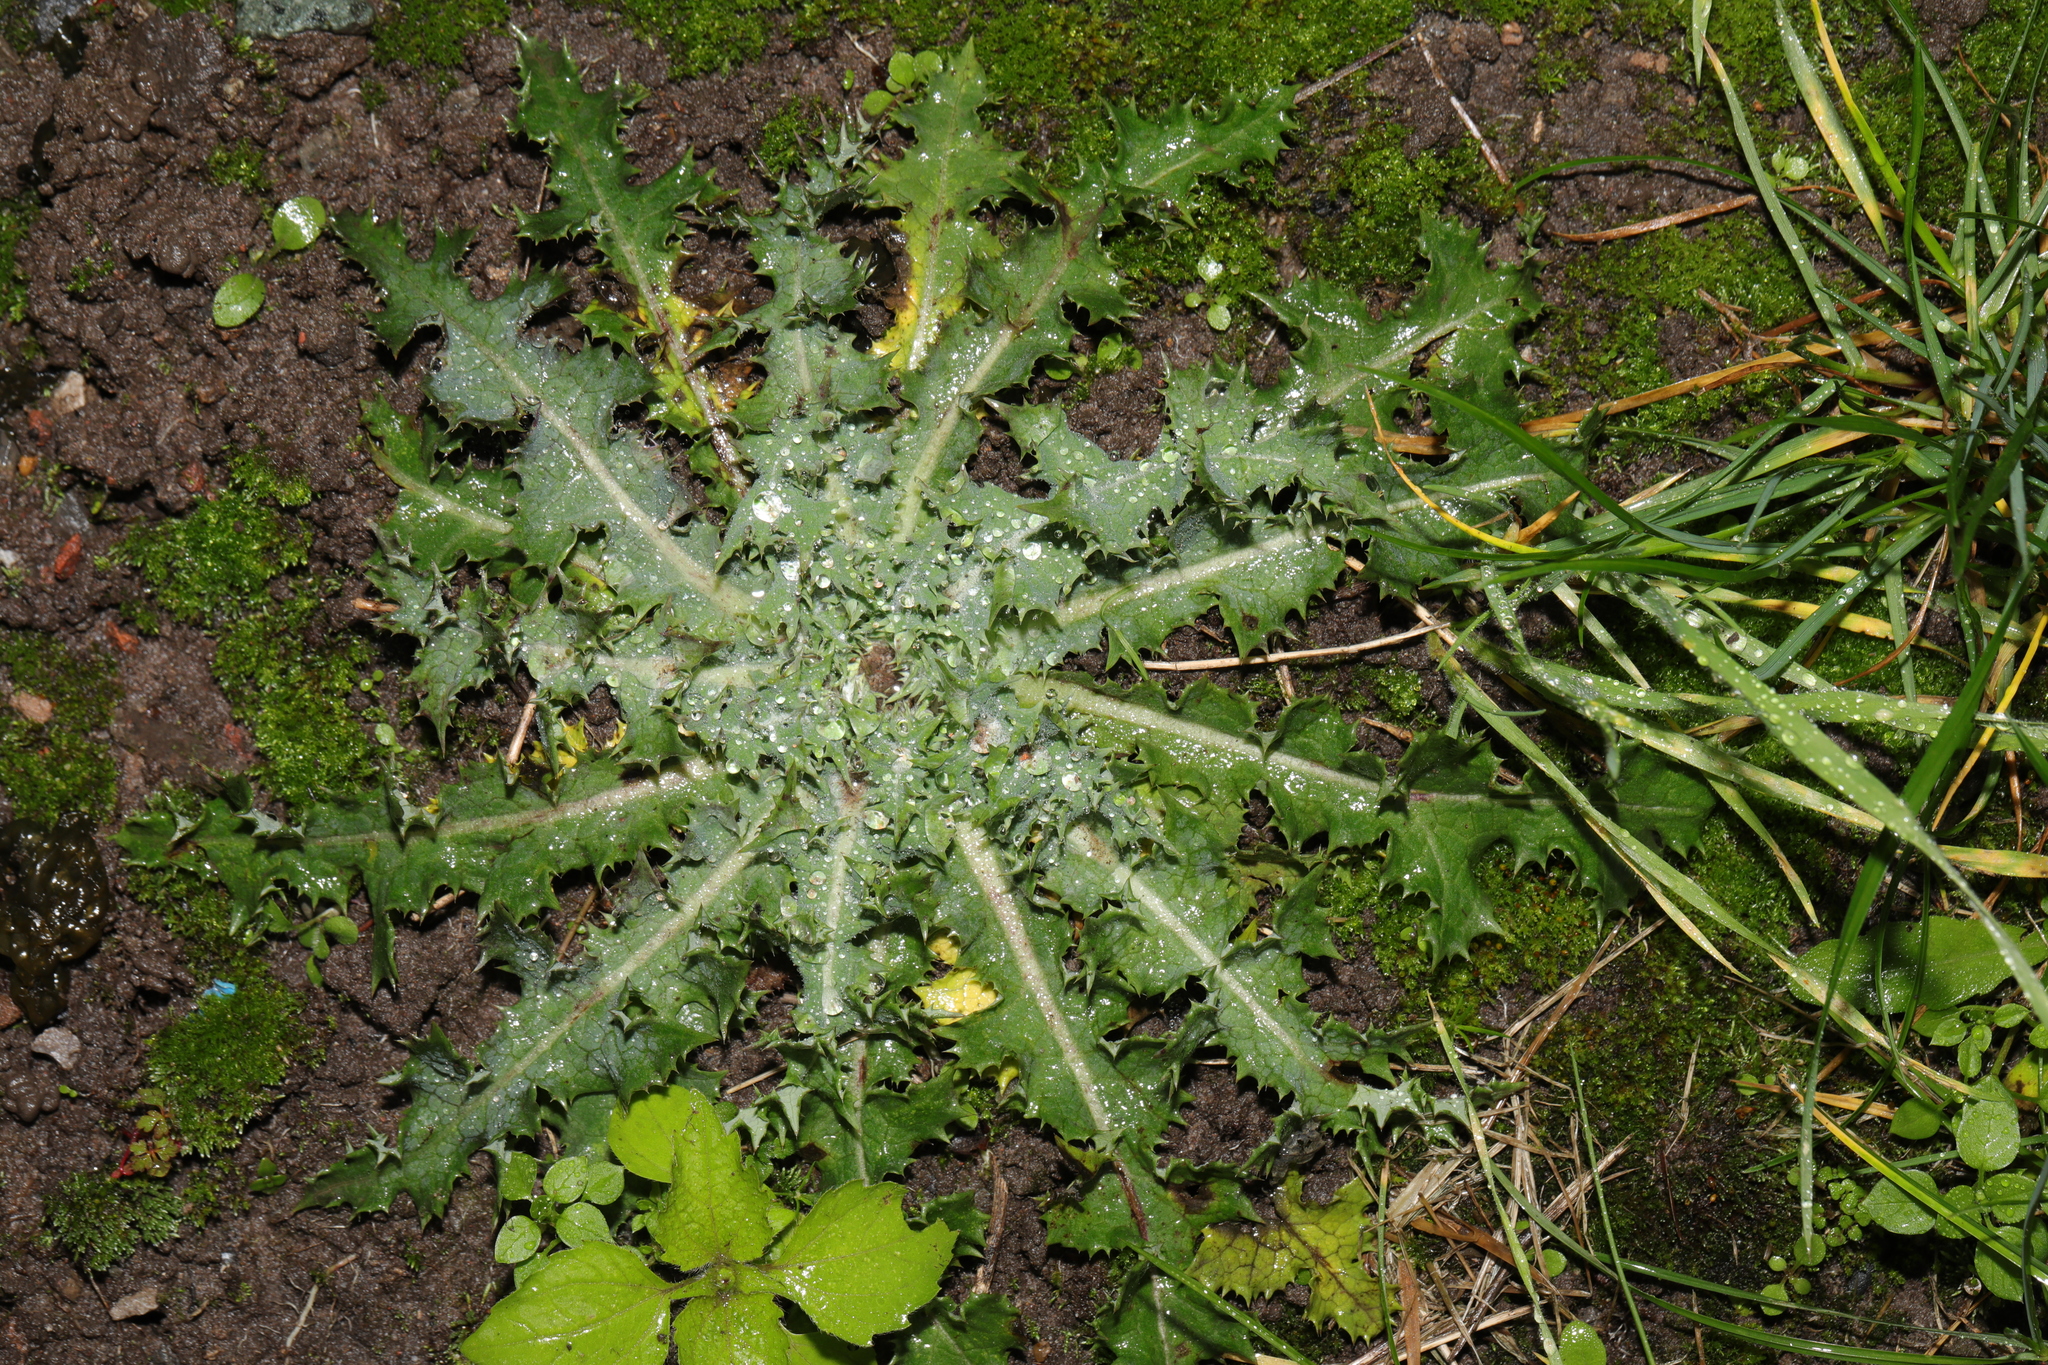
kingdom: Plantae
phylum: Tracheophyta
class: Magnoliopsida
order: Asterales
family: Asteraceae
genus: Sonchus
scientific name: Sonchus asper
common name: Prickly sow-thistle
